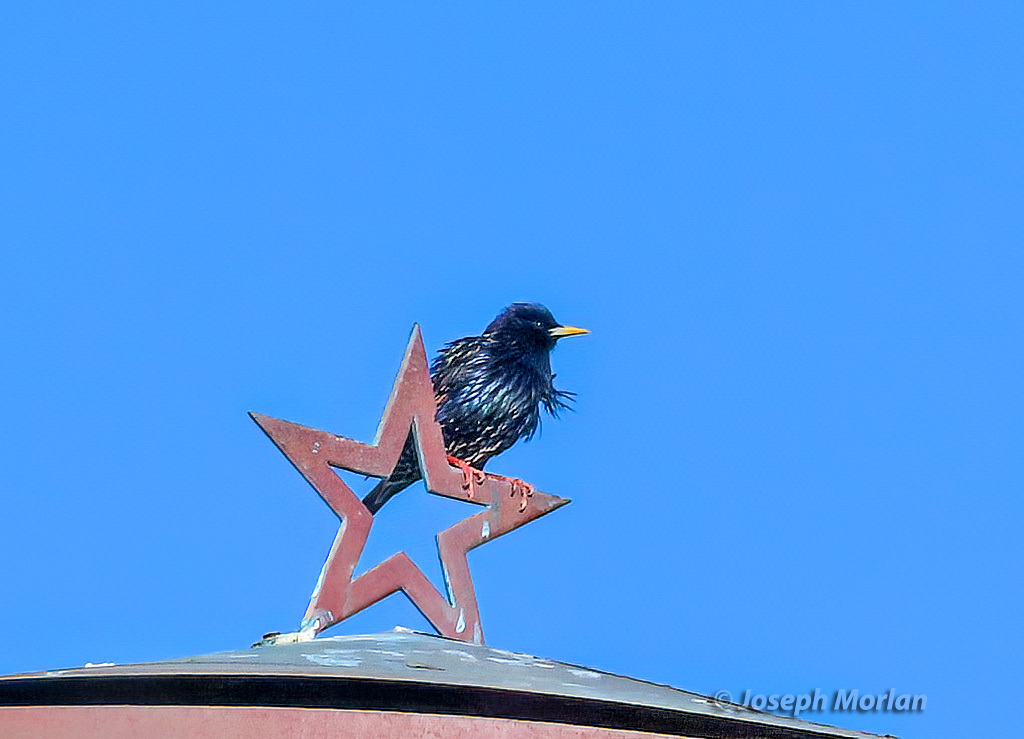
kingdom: Animalia
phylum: Chordata
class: Aves
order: Passeriformes
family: Sturnidae
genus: Sturnus
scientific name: Sturnus vulgaris
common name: Common starling
